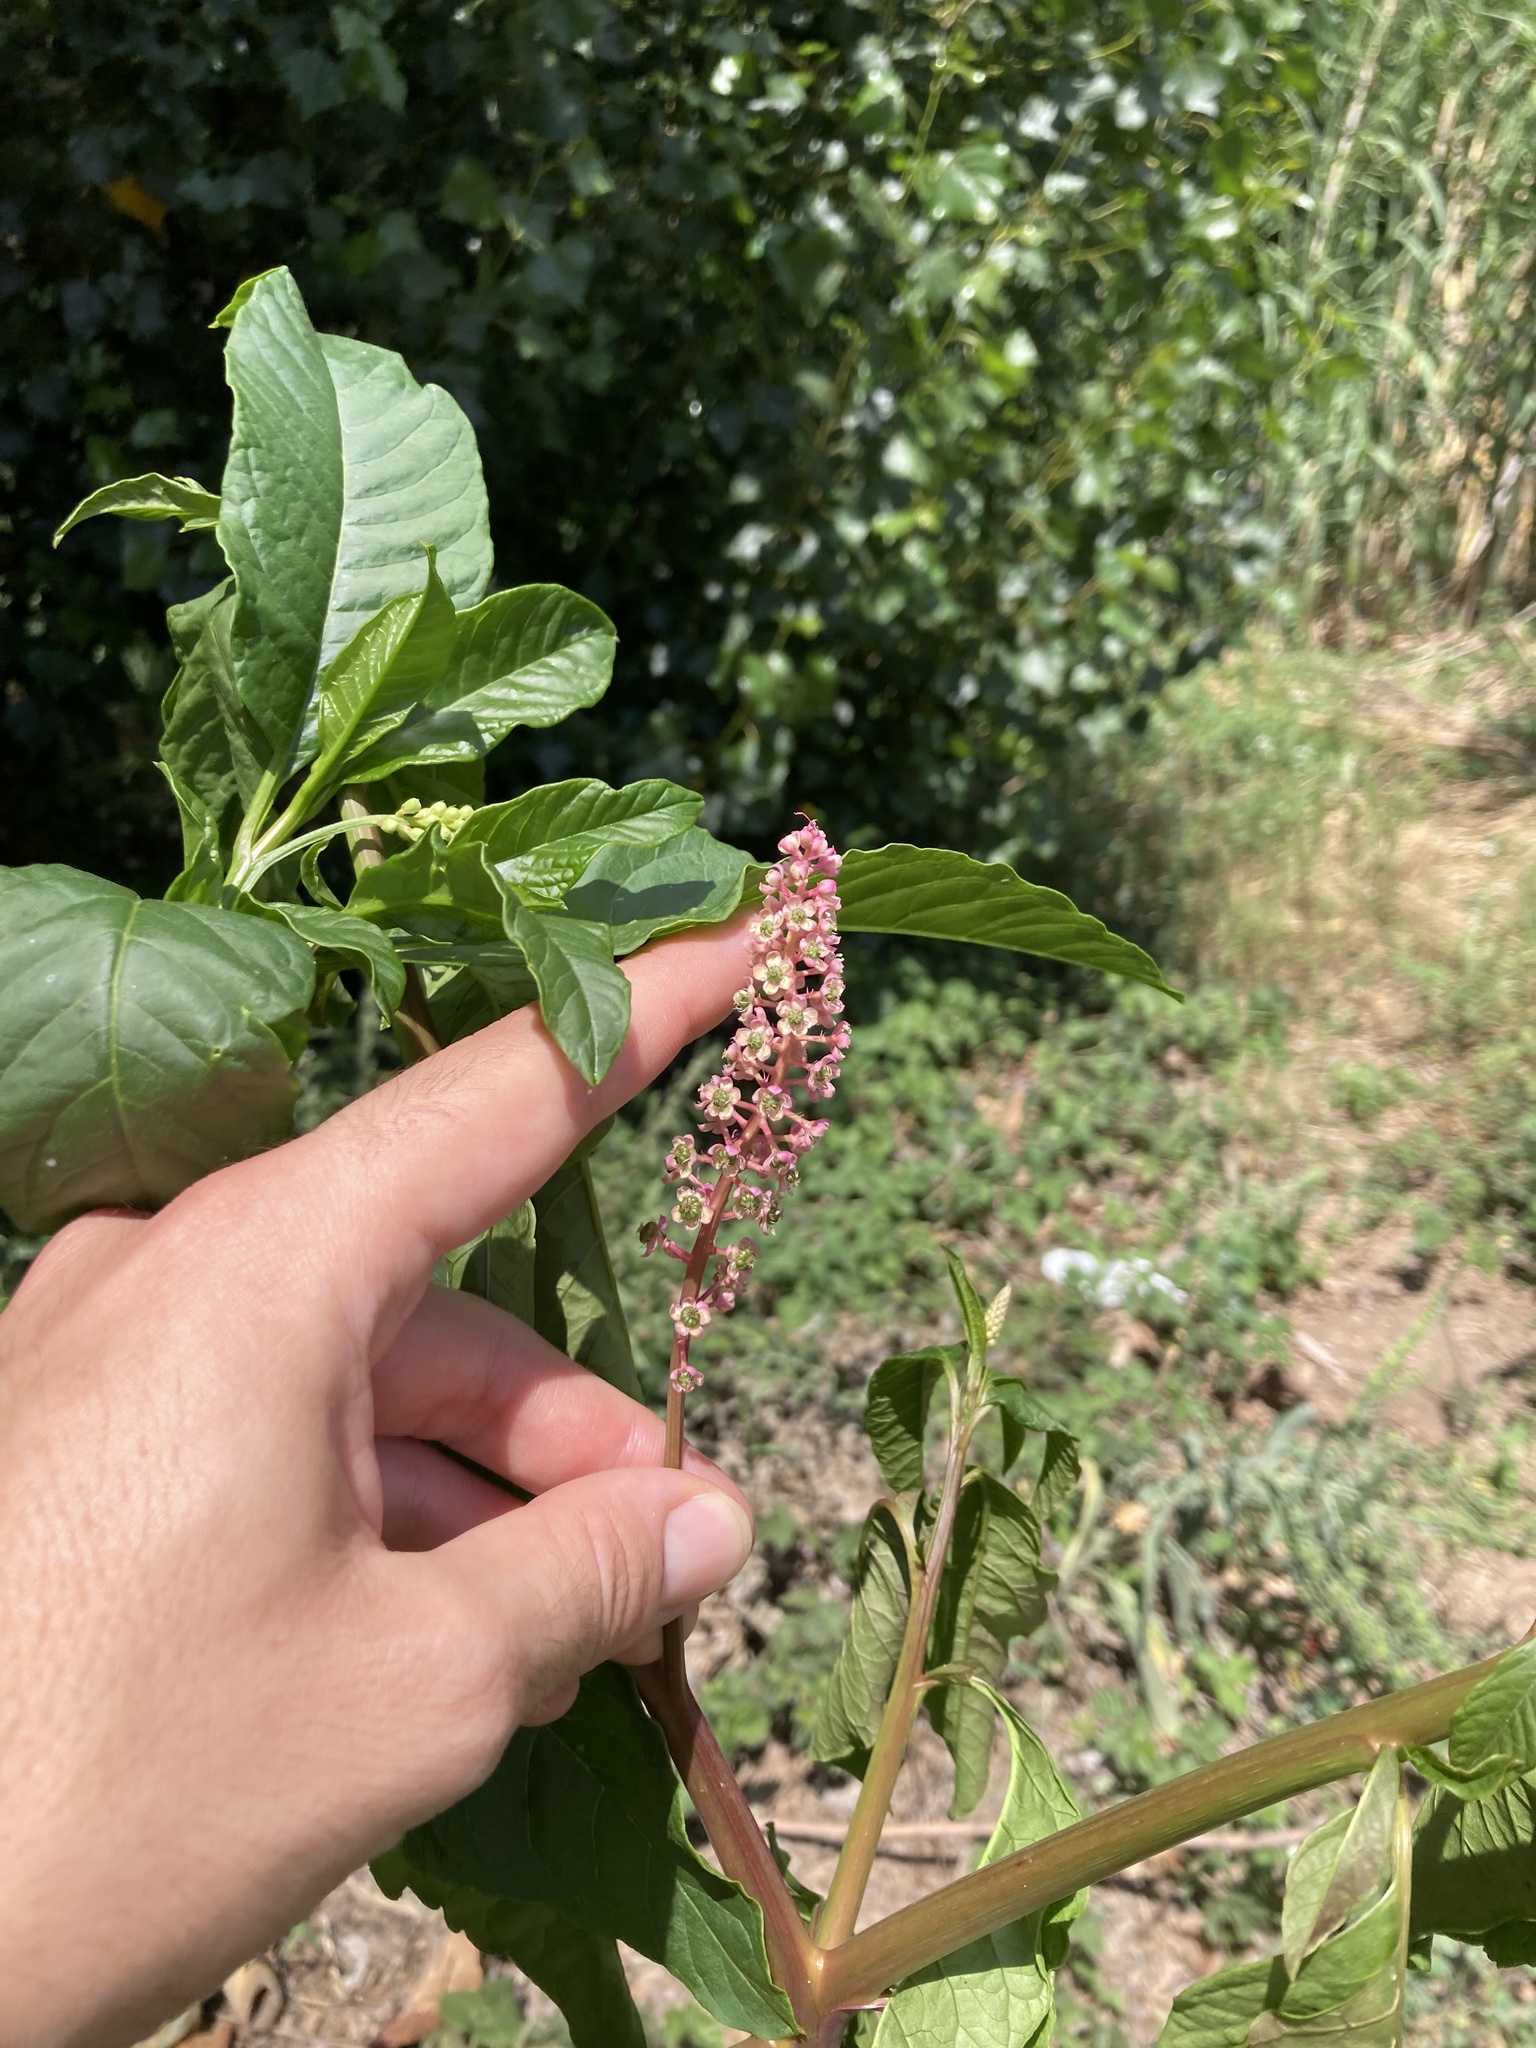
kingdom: Plantae
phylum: Tracheophyta
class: Magnoliopsida
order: Caryophyllales
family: Phytolaccaceae
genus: Phytolacca
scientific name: Phytolacca americana
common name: American pokeweed
